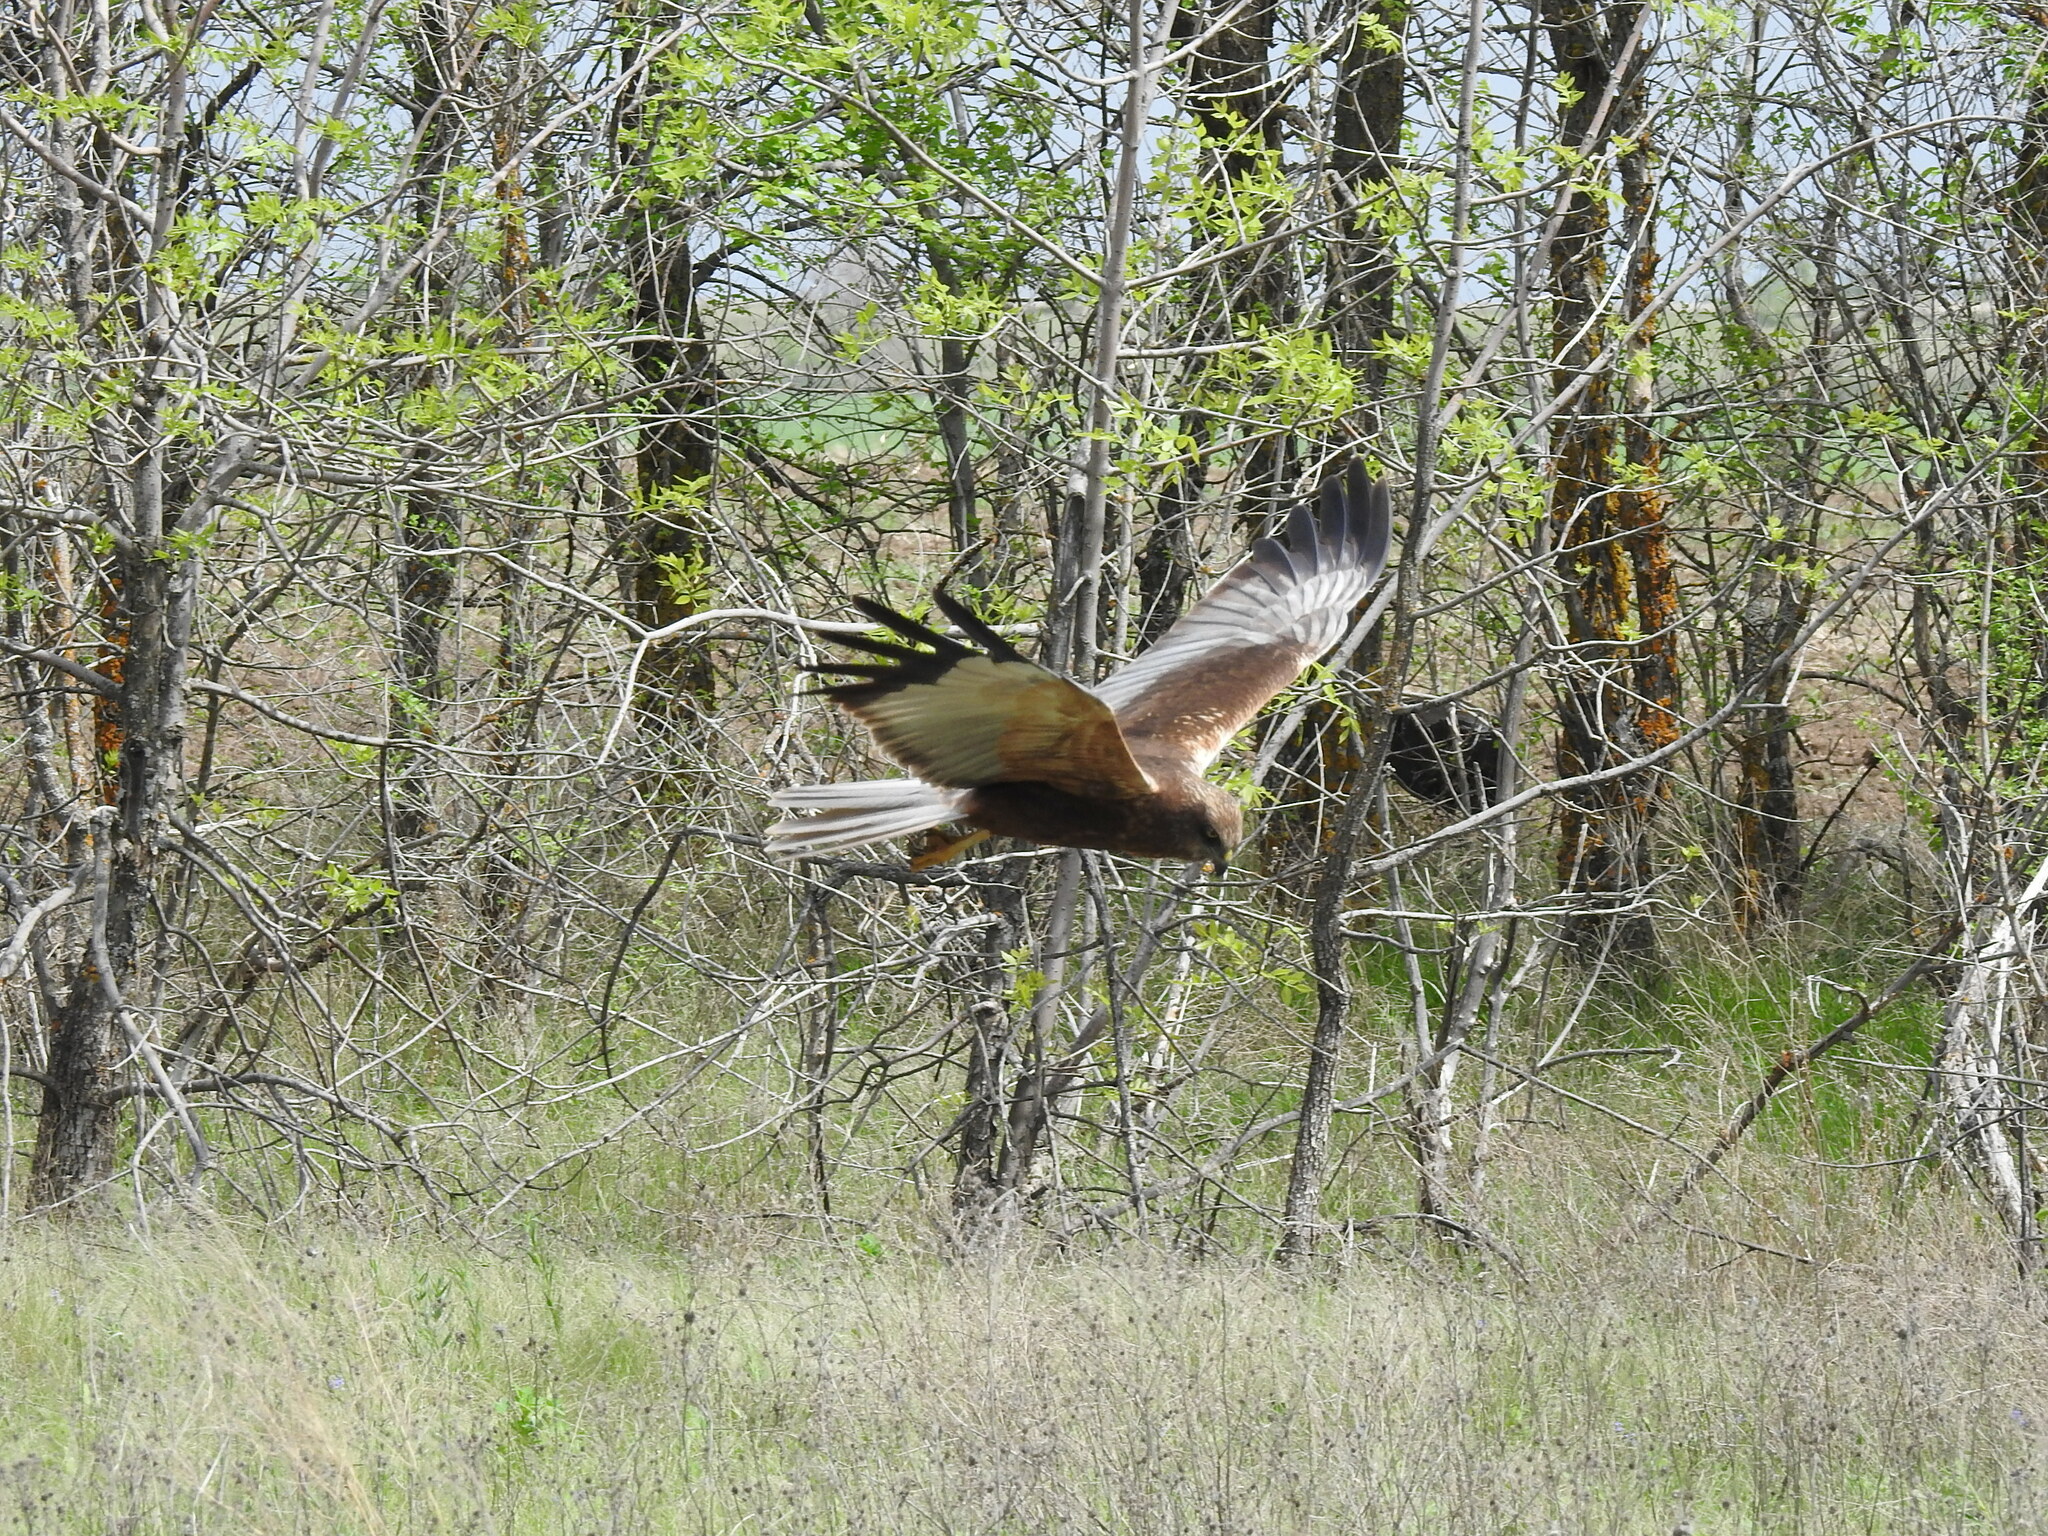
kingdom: Animalia
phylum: Chordata
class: Aves
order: Accipitriformes
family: Accipitridae
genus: Circus
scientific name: Circus aeruginosus
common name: Western marsh harrier
